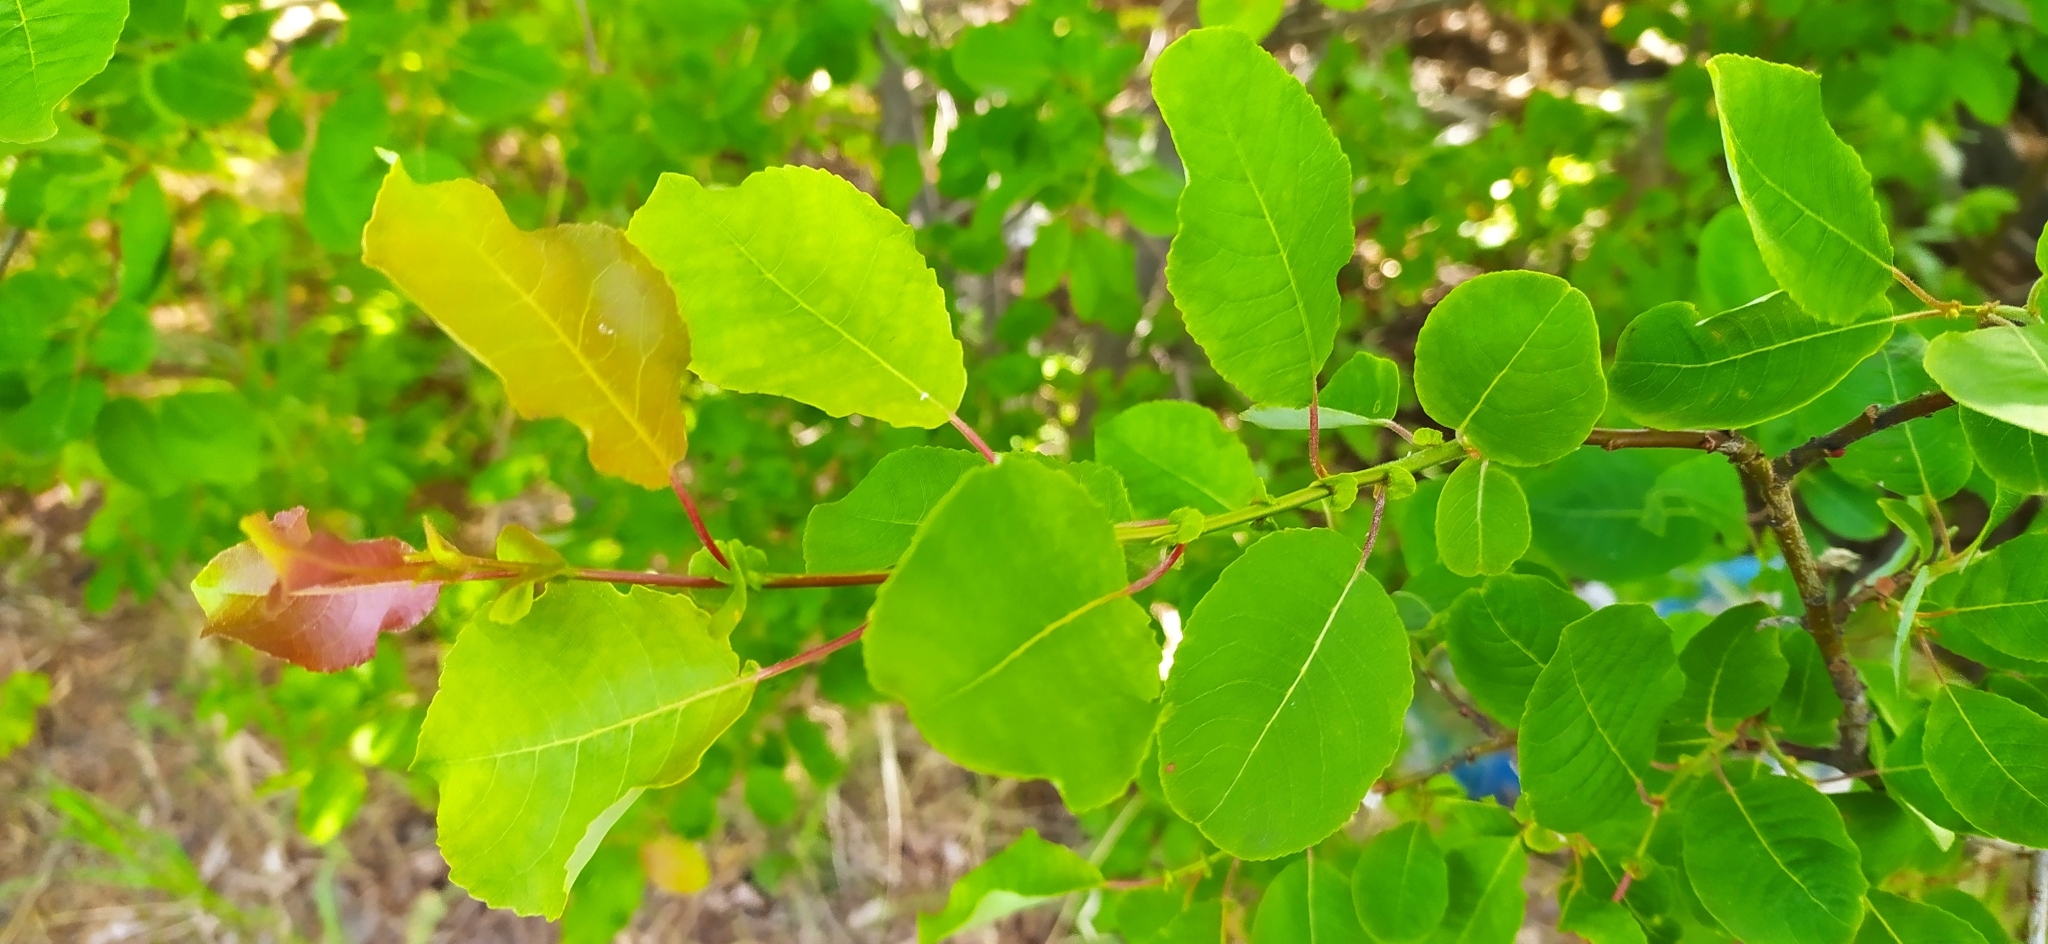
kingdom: Plantae
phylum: Tracheophyta
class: Magnoliopsida
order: Malpighiales
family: Salicaceae
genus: Salix
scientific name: Salix pyrolifolia
